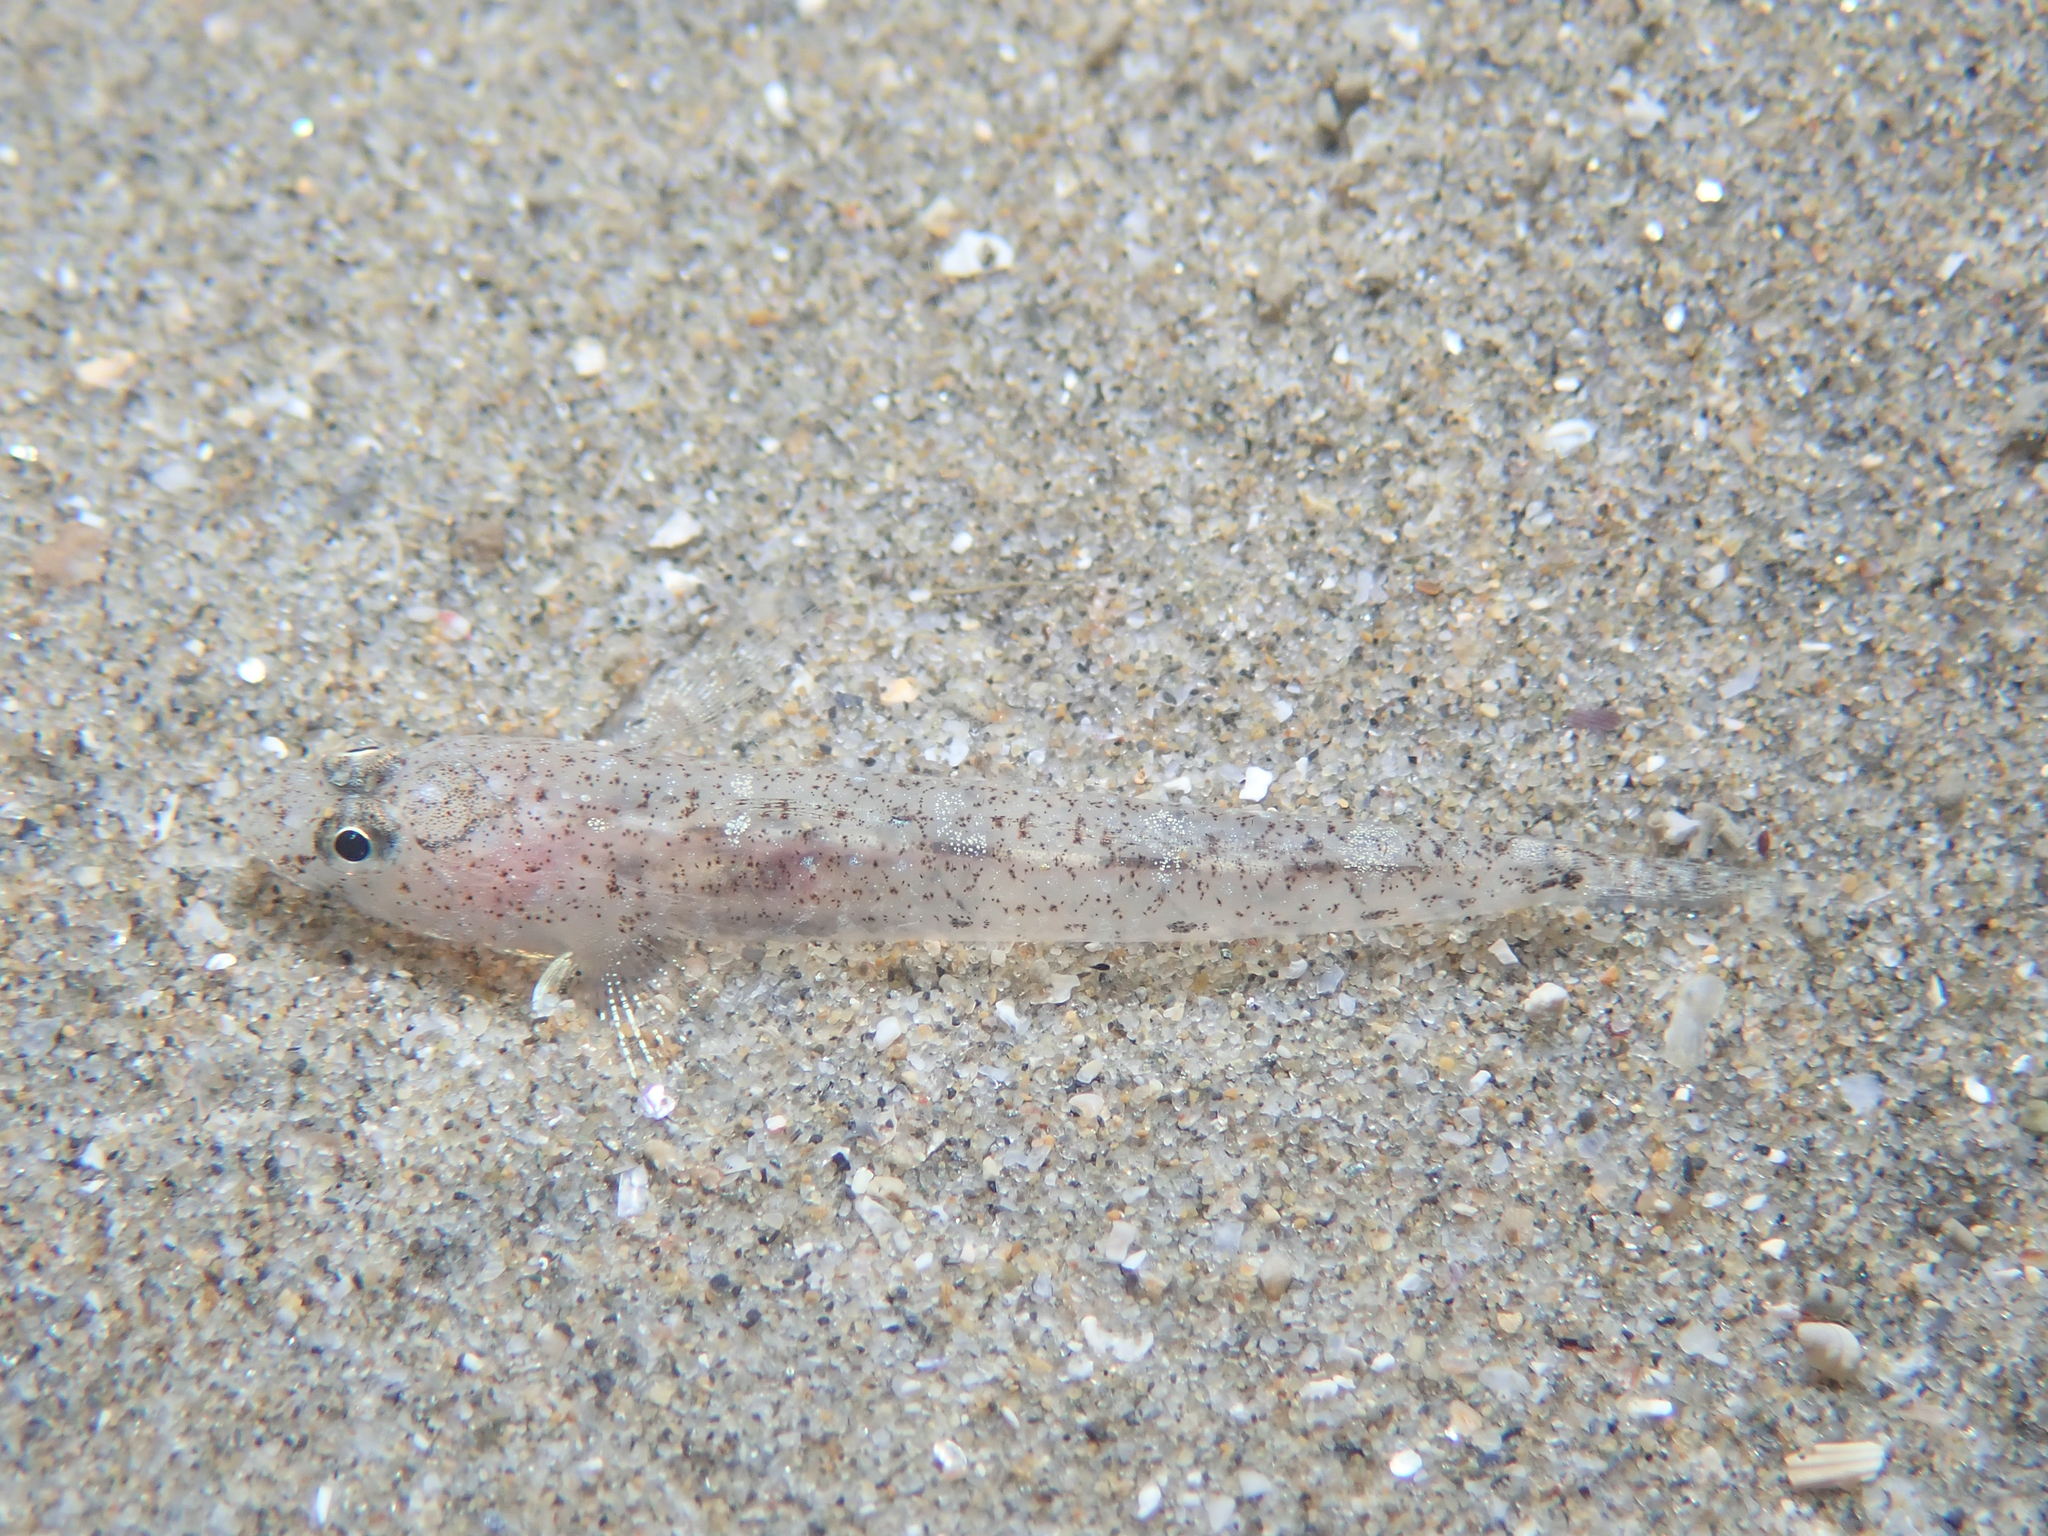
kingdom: Animalia
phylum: Chordata
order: Perciformes
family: Gobiidae
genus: Pomatoschistus
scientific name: Pomatoschistus marmoratus
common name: Marbled goby
